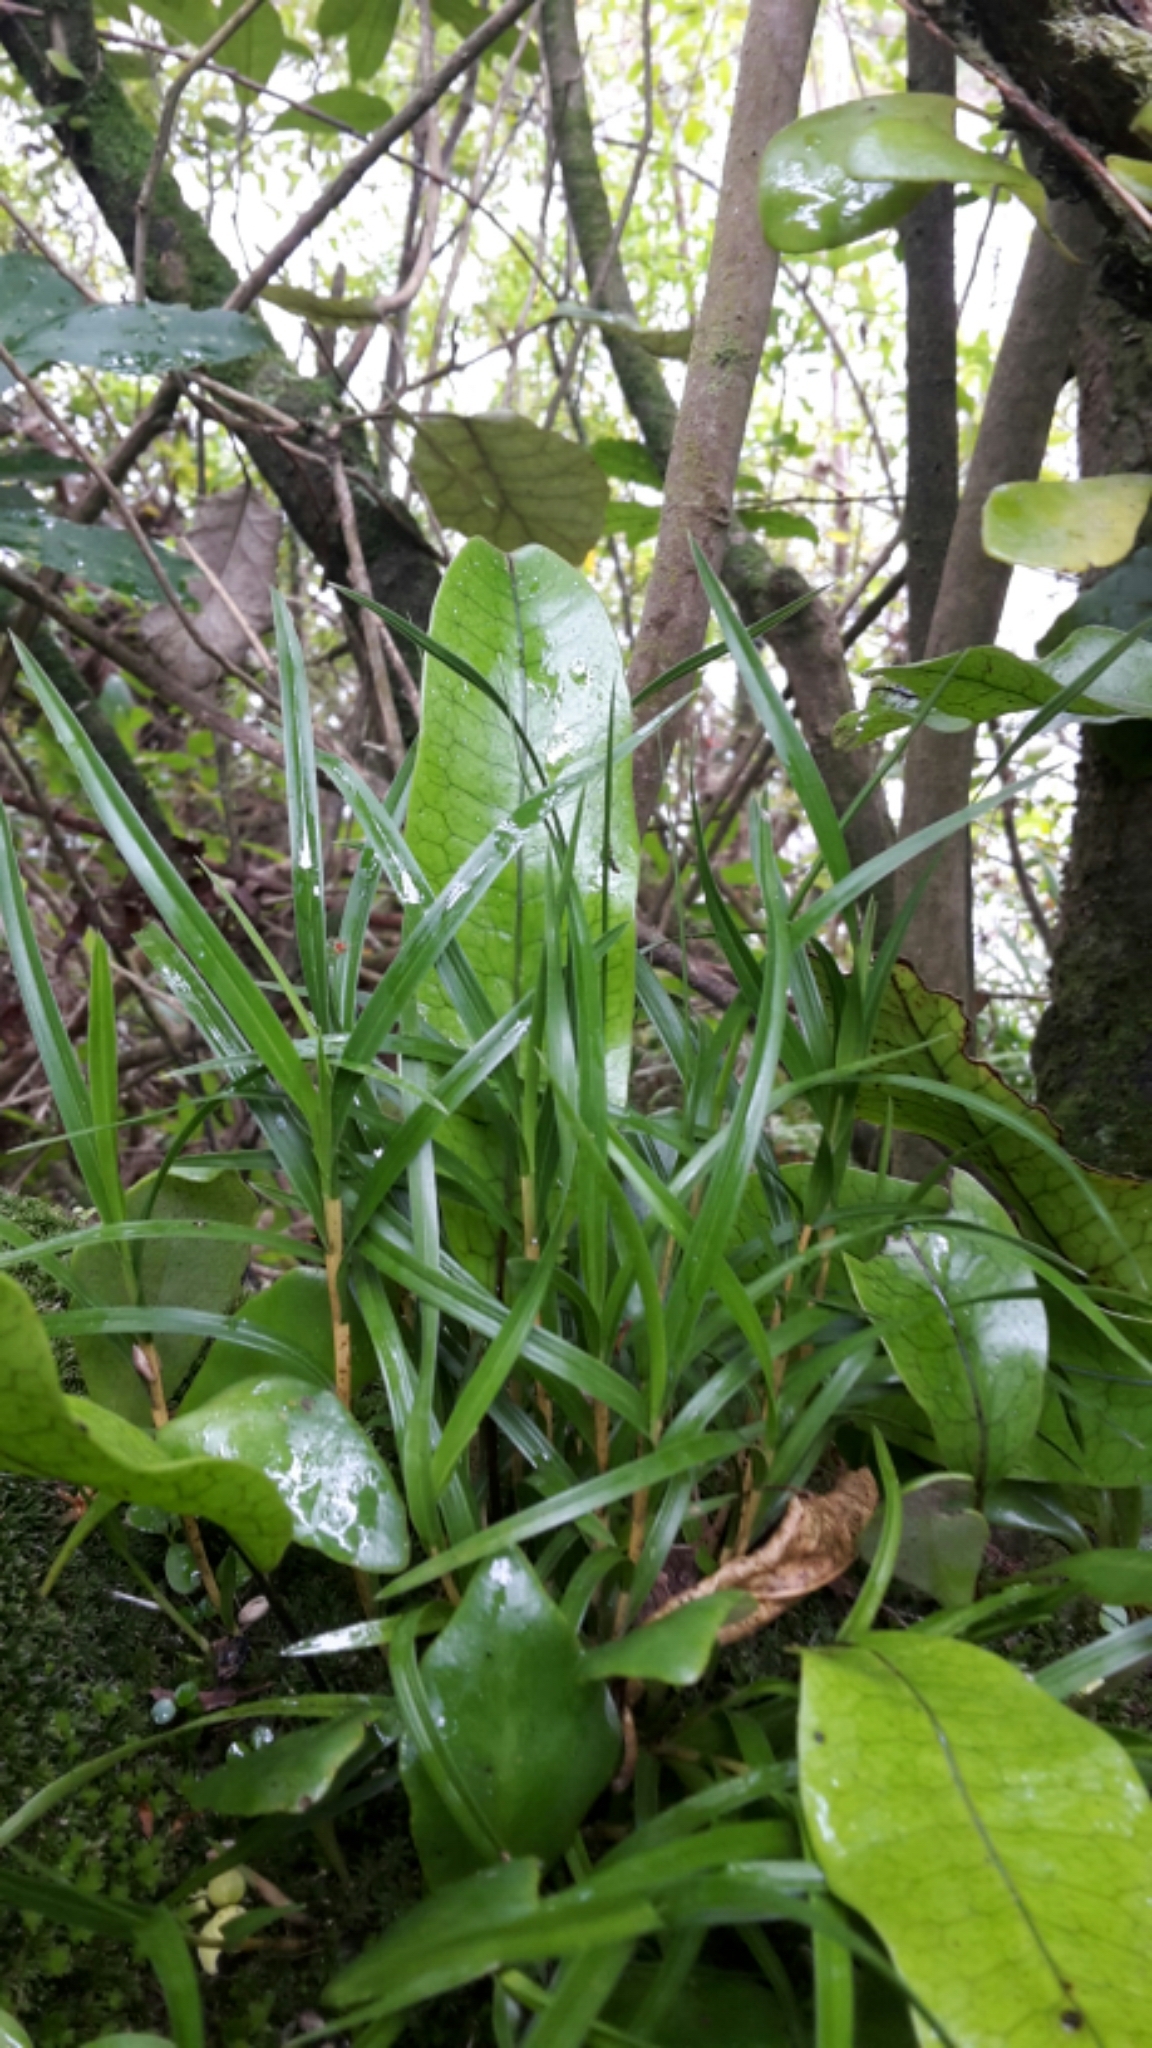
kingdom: Plantae
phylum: Tracheophyta
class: Liliopsida
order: Asparagales
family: Orchidaceae
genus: Earina
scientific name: Earina mucronata
